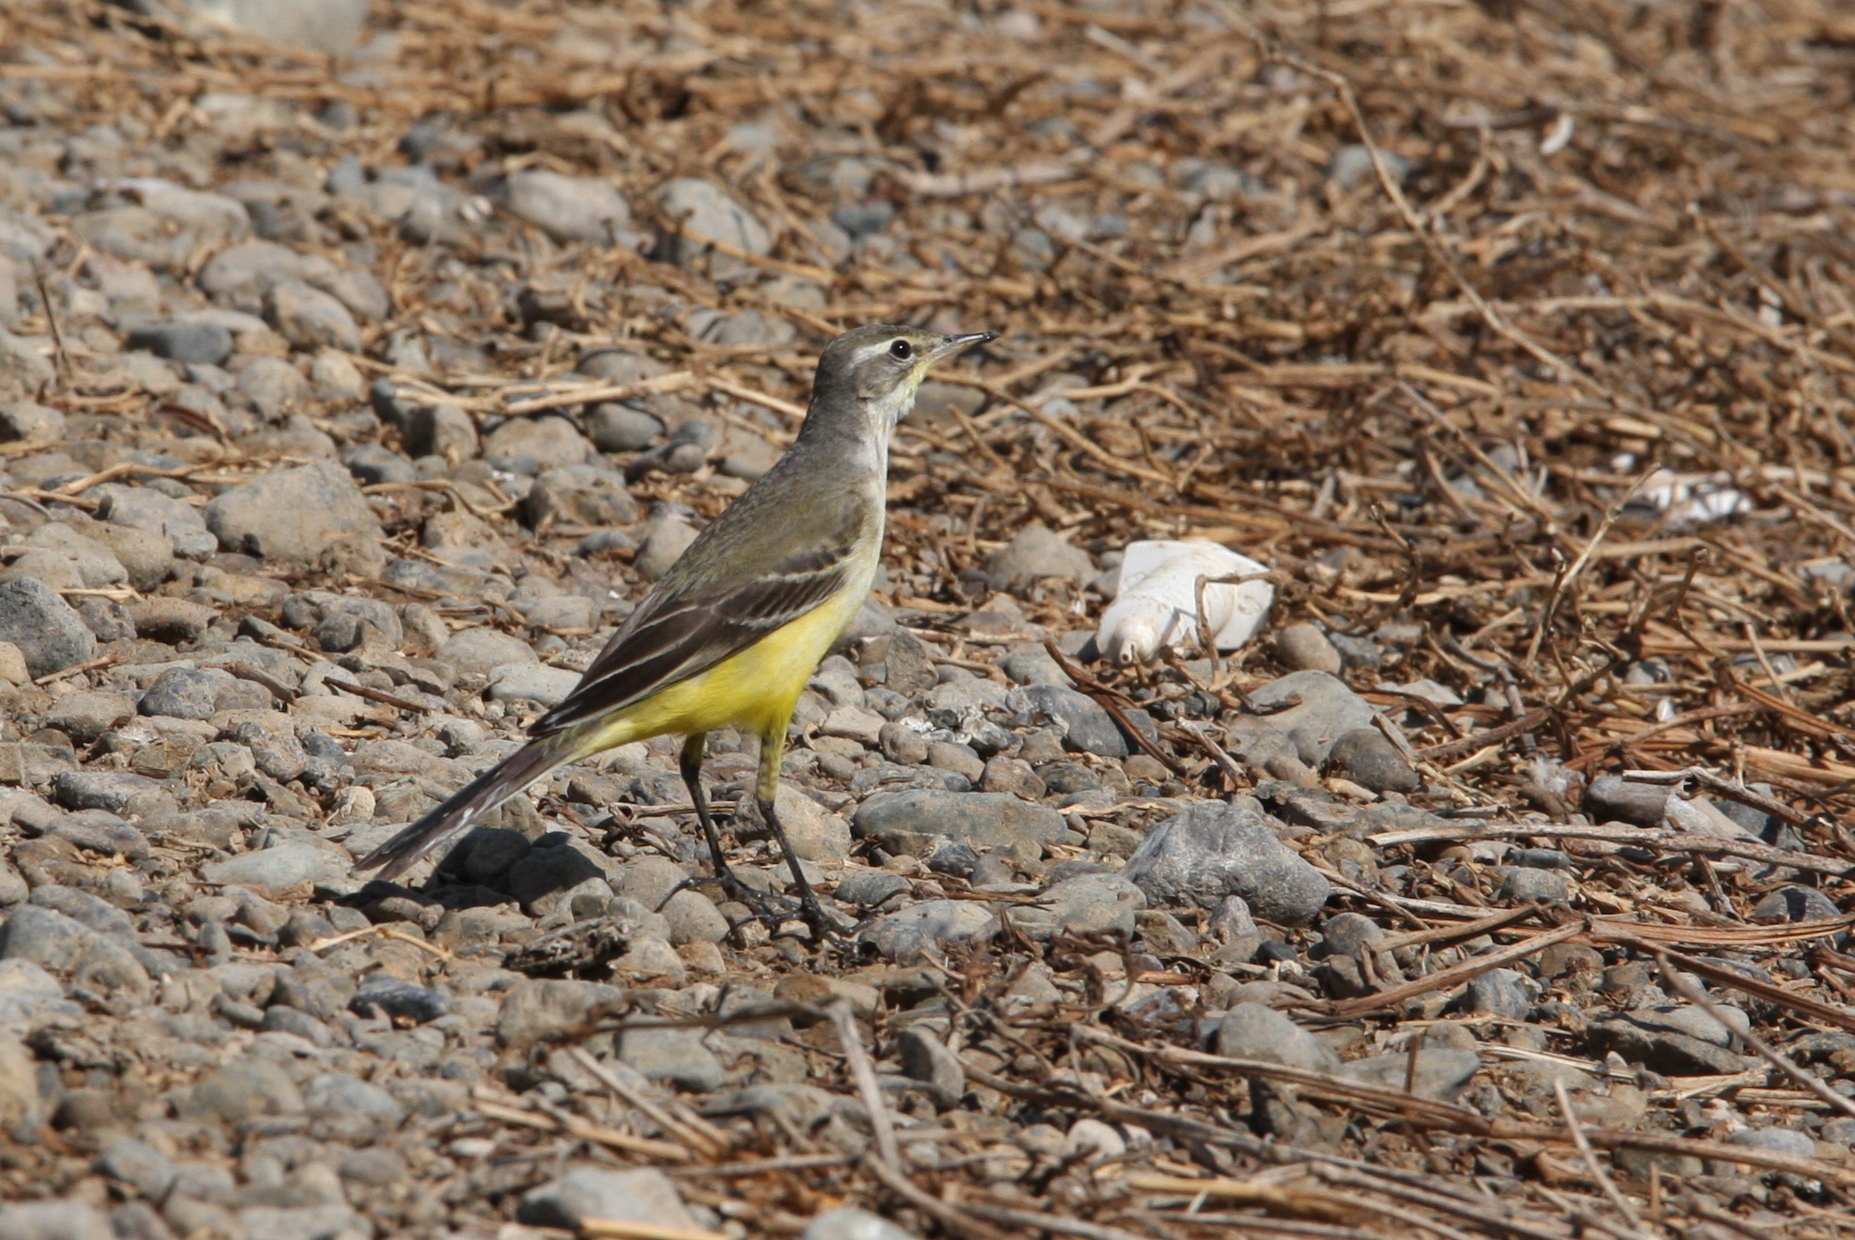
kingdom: Animalia
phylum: Chordata
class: Aves
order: Passeriformes
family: Motacillidae
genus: Motacilla
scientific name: Motacilla flava
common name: Western yellow wagtail
